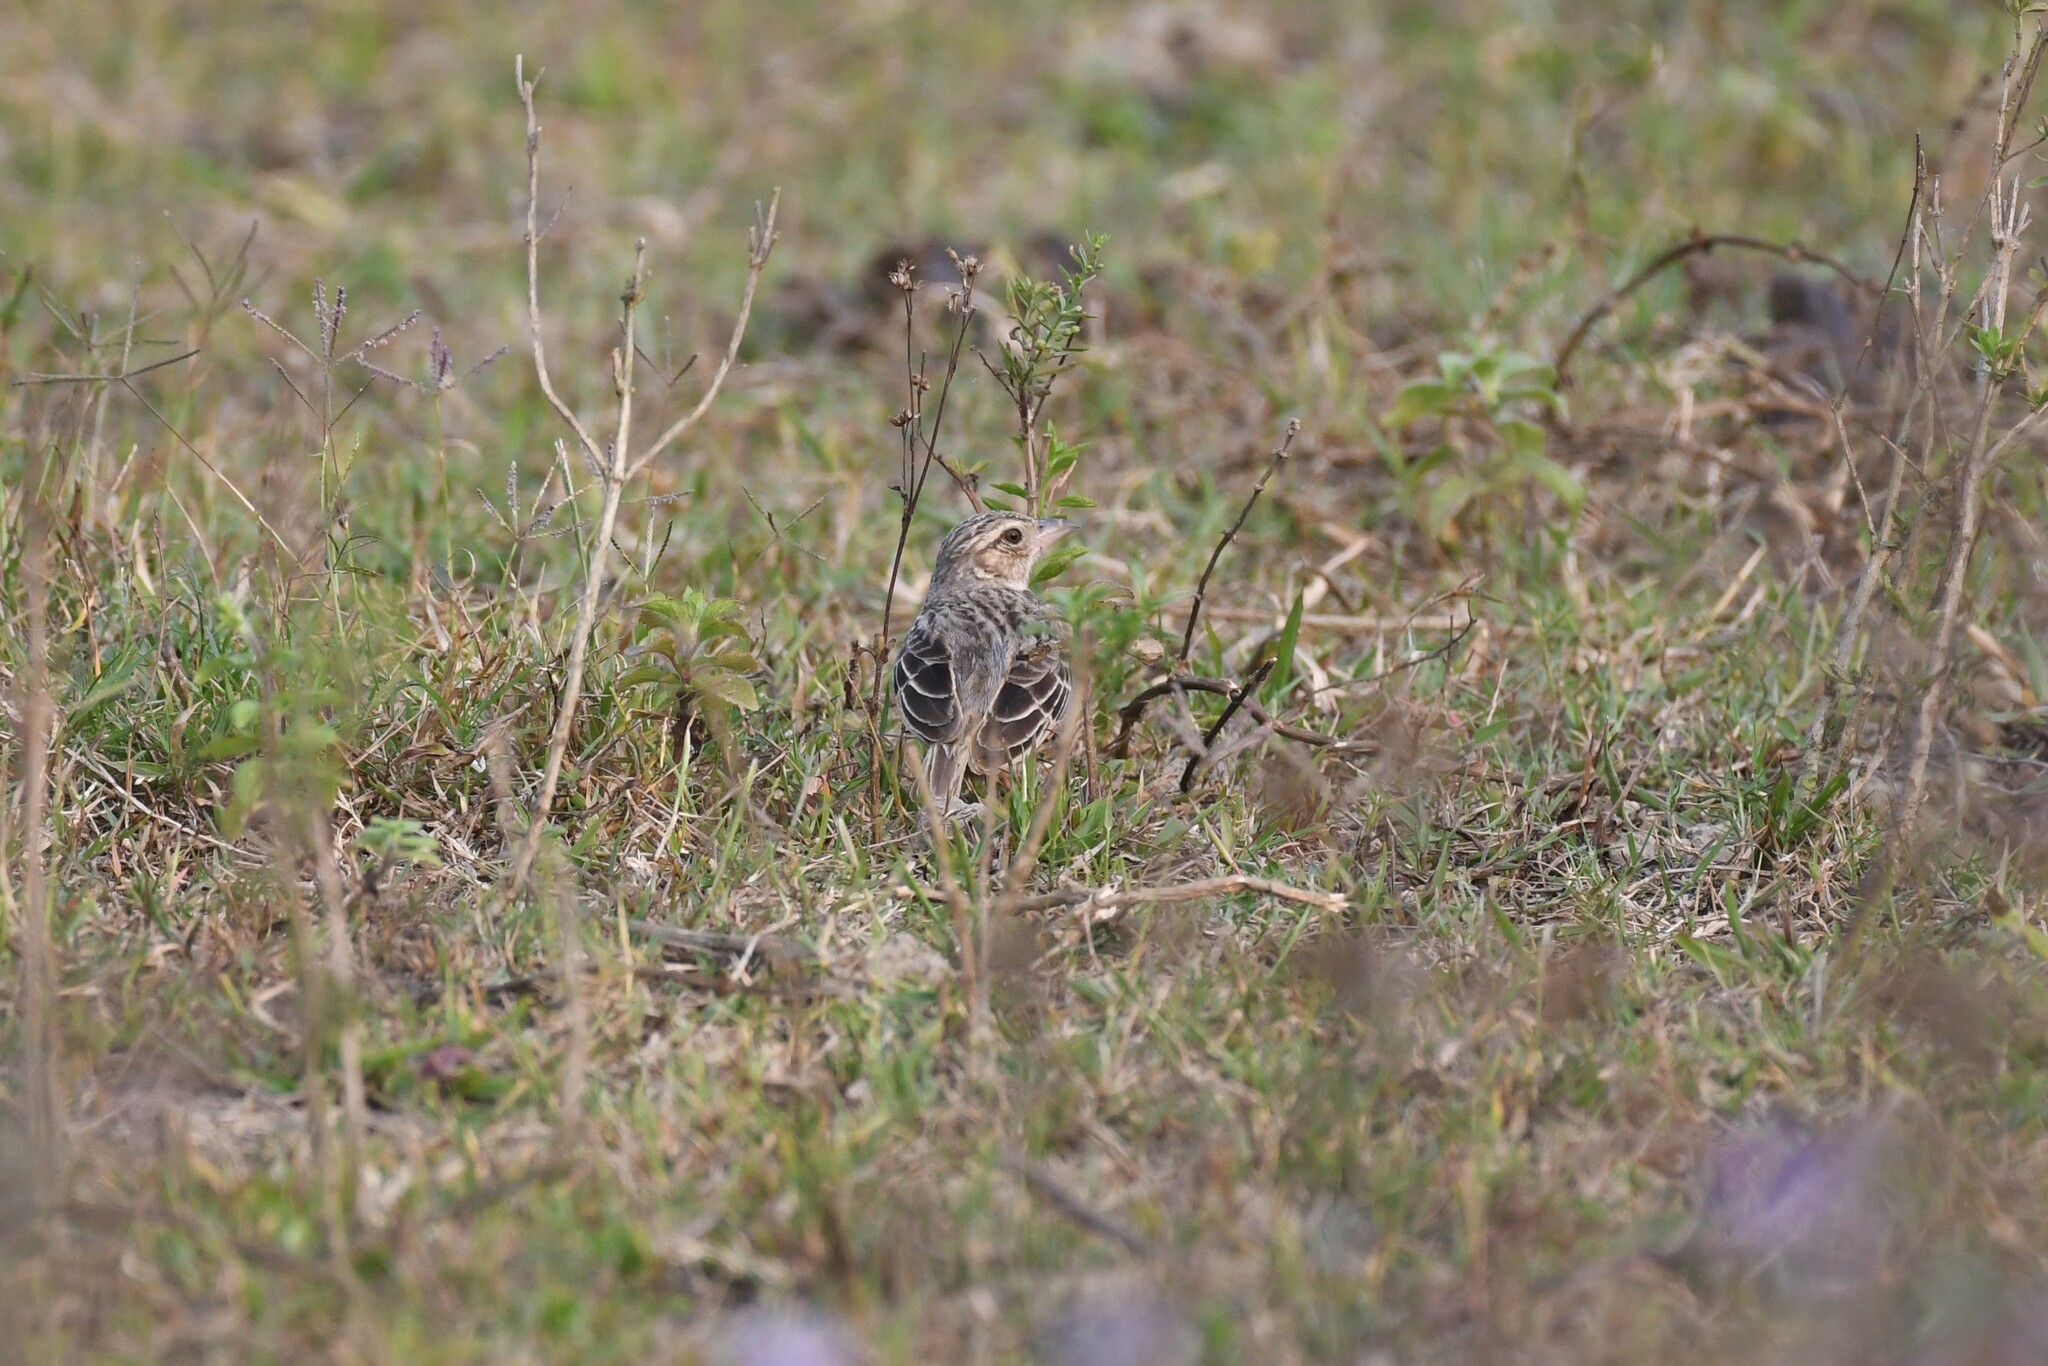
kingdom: Animalia
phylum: Chordata
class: Aves
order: Passeriformes
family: Alaudidae
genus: Mirafra
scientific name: Mirafra assamica
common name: Bengal bush lark
